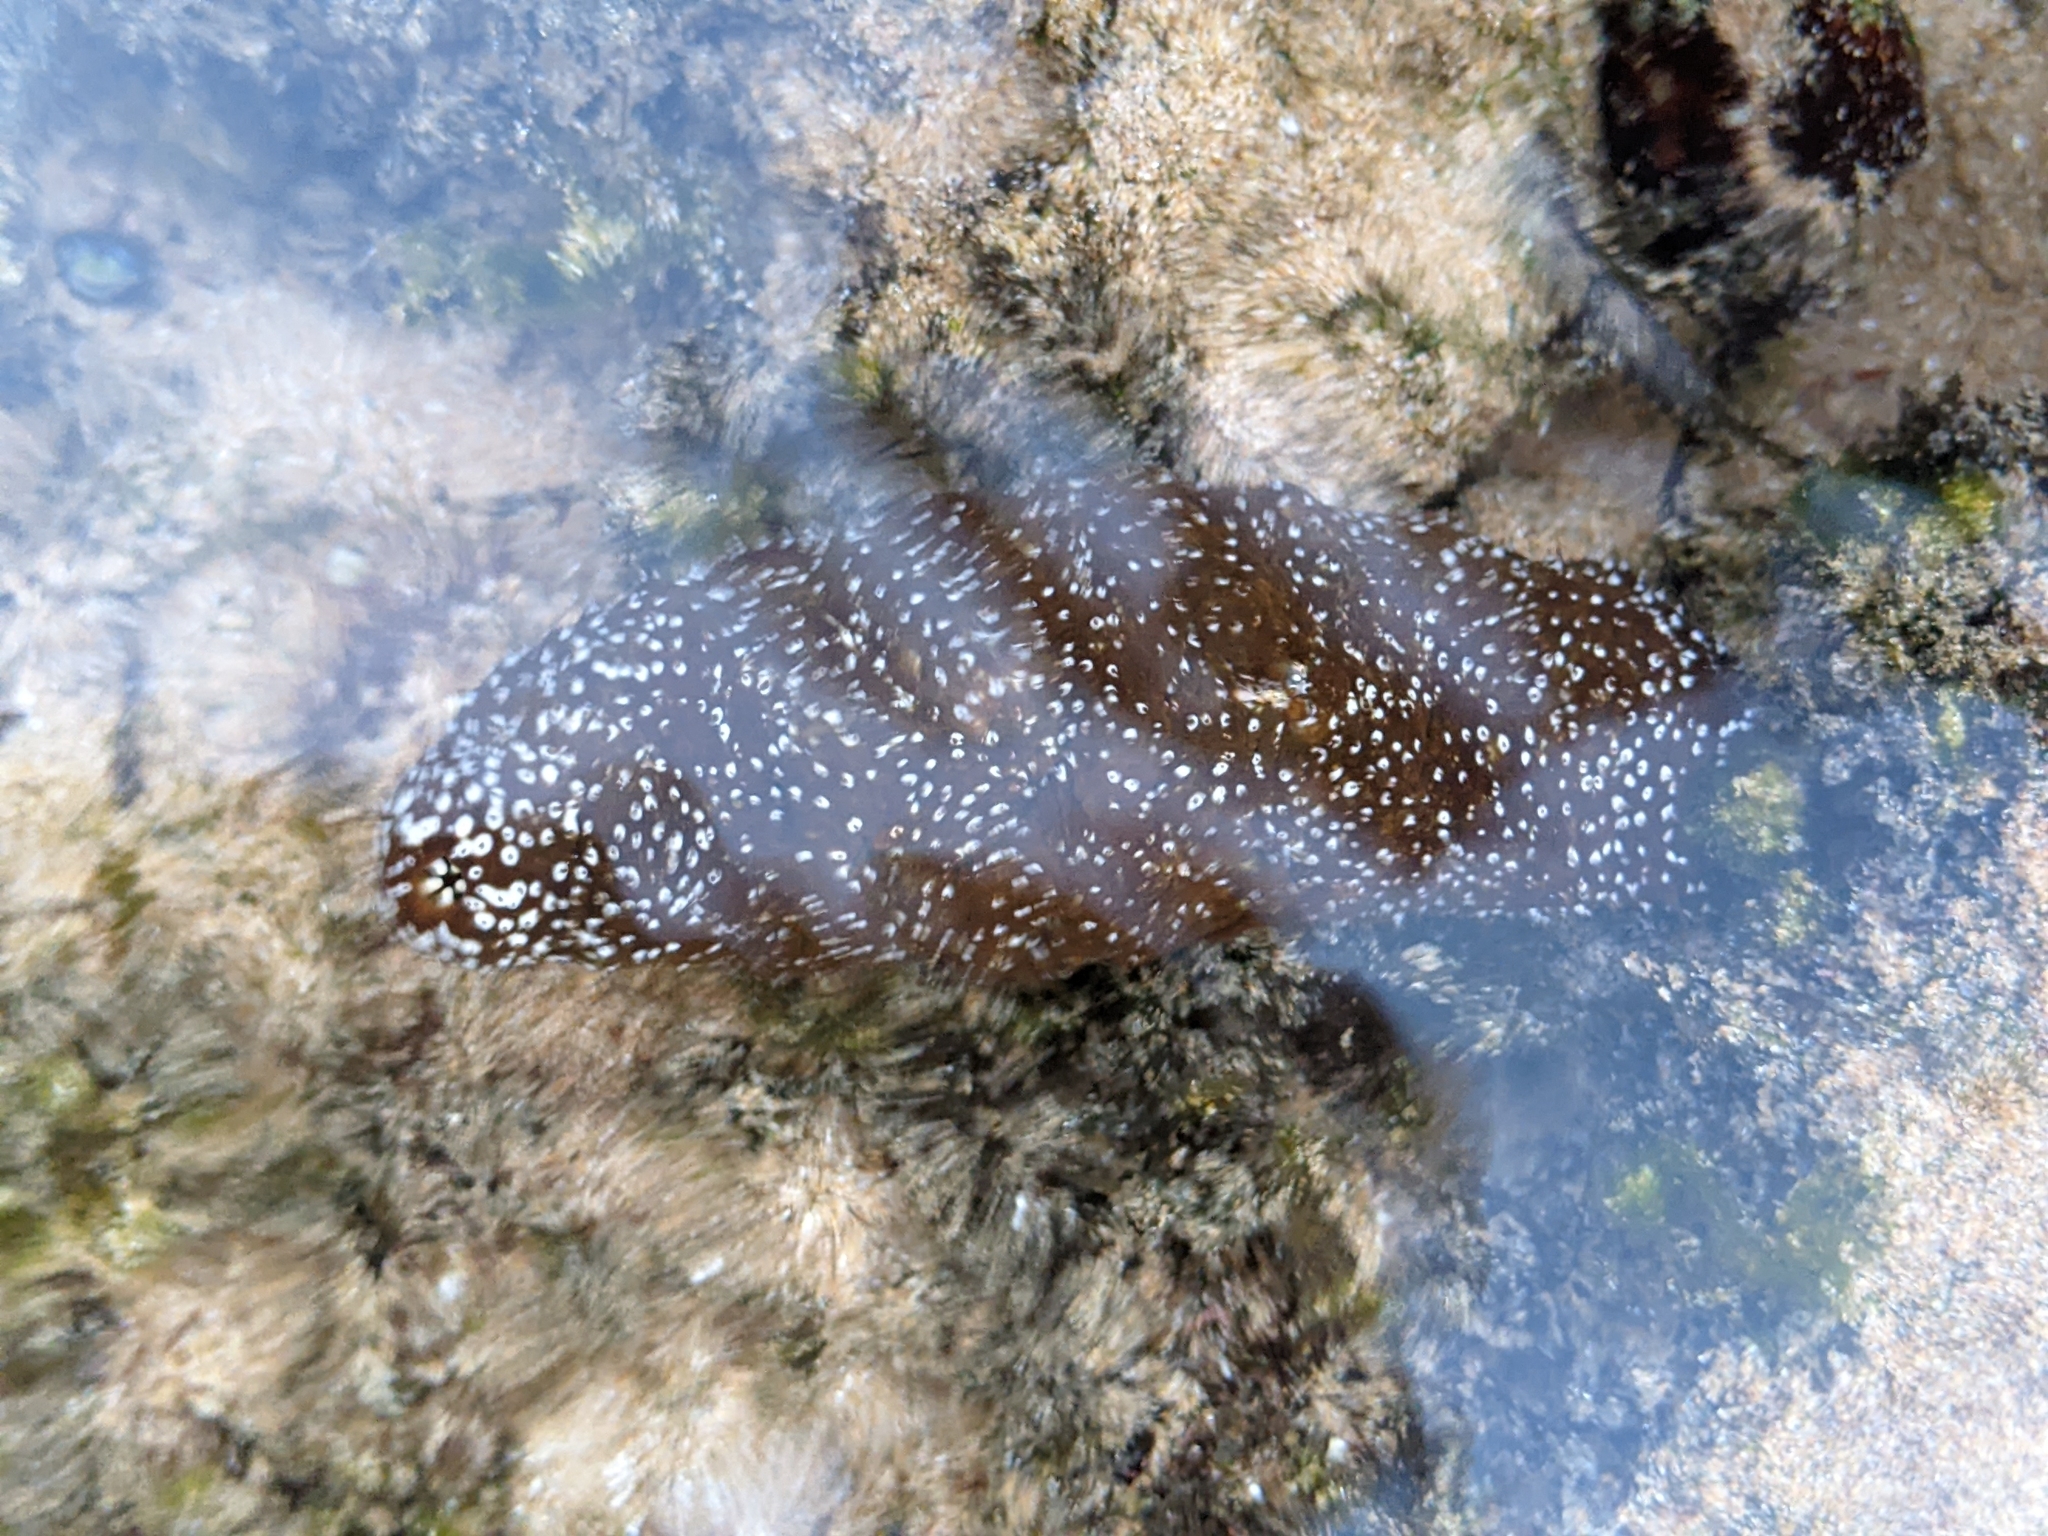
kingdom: Animalia
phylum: Echinodermata
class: Holothuroidea
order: Holothuriida
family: Holothuriidae
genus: Actinopyga
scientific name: Actinopyga varians
